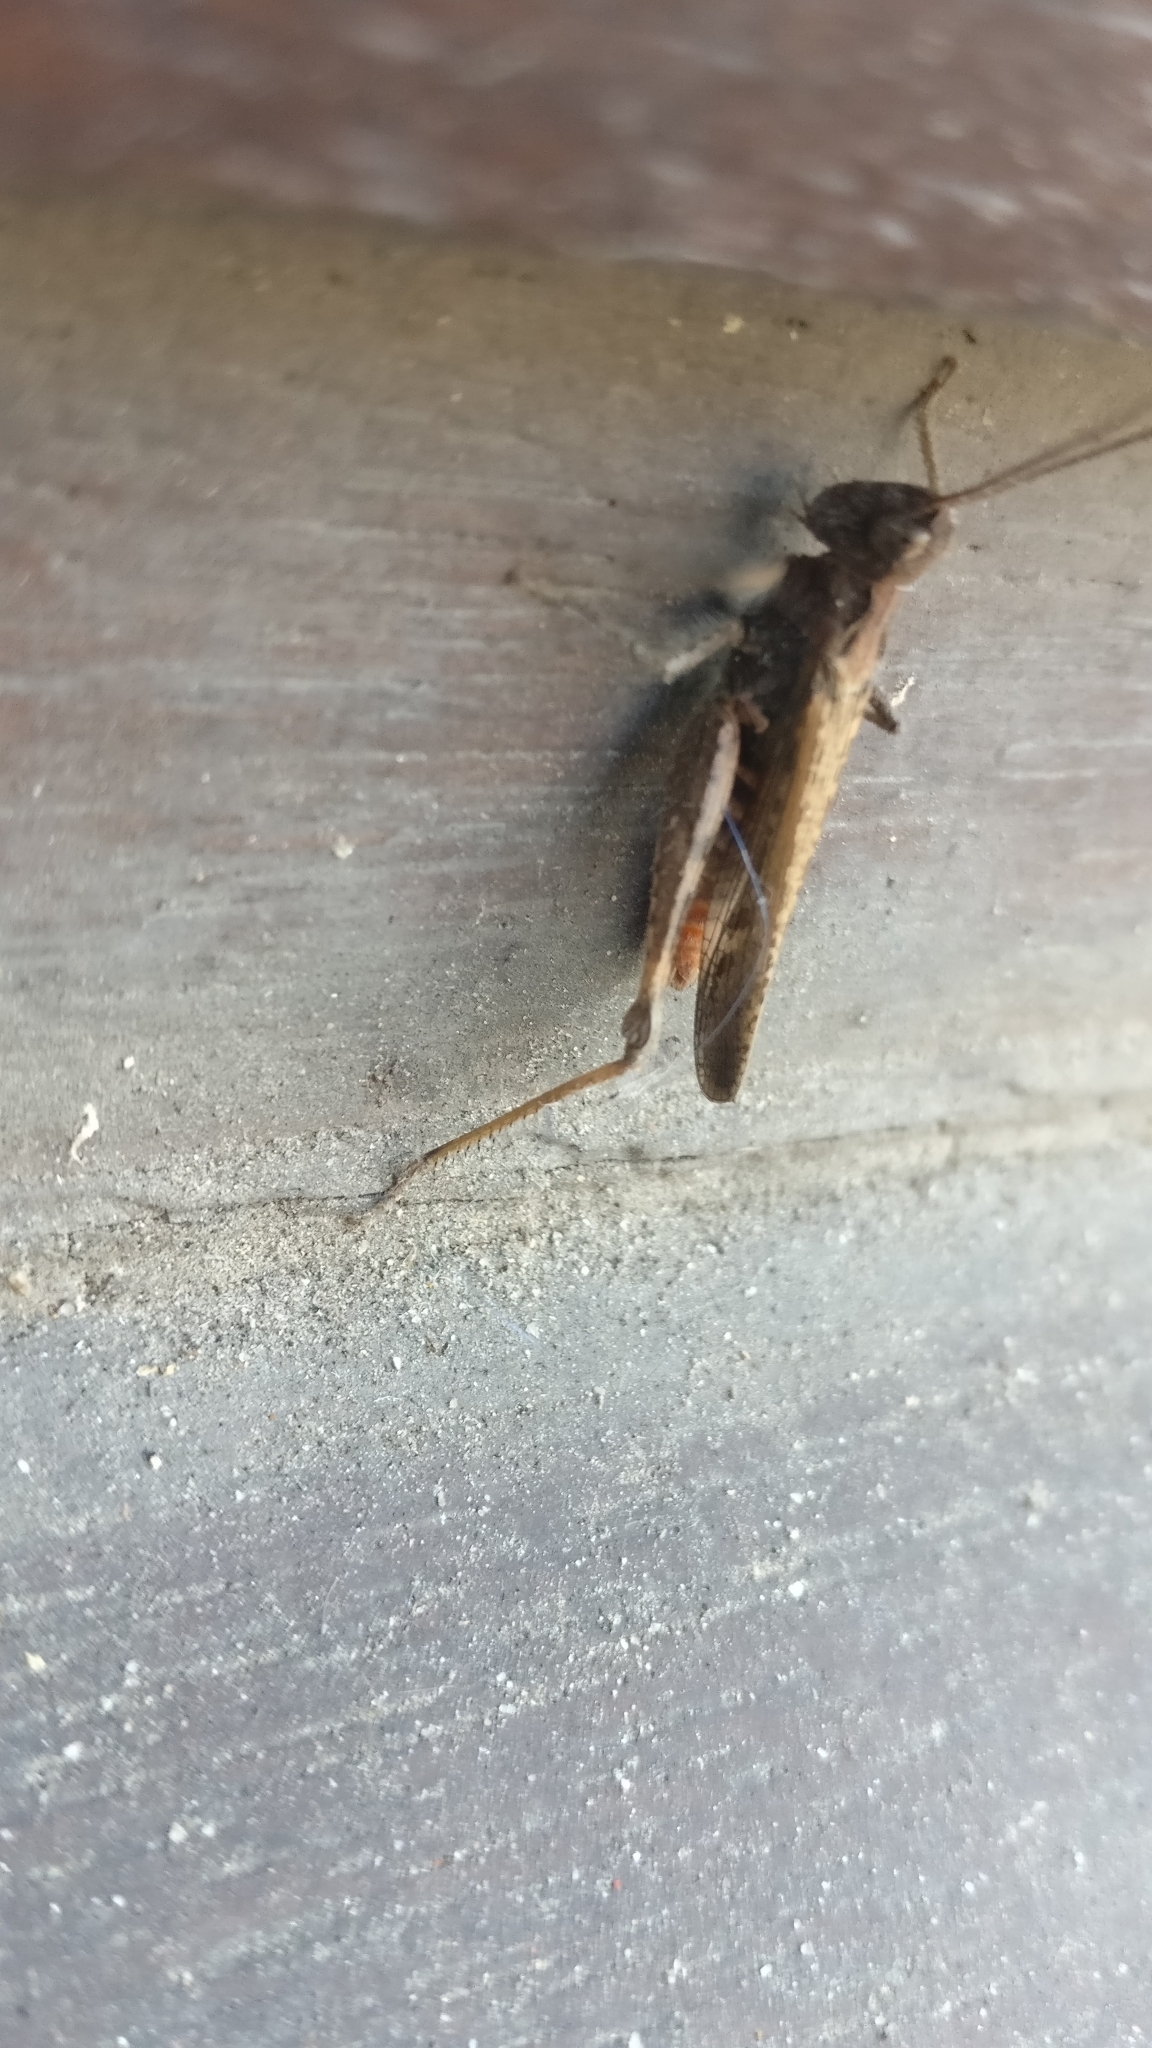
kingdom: Animalia
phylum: Arthropoda
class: Insecta
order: Orthoptera
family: Acrididae
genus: Chorthippus
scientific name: Chorthippus brunneus
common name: Field grasshopper
